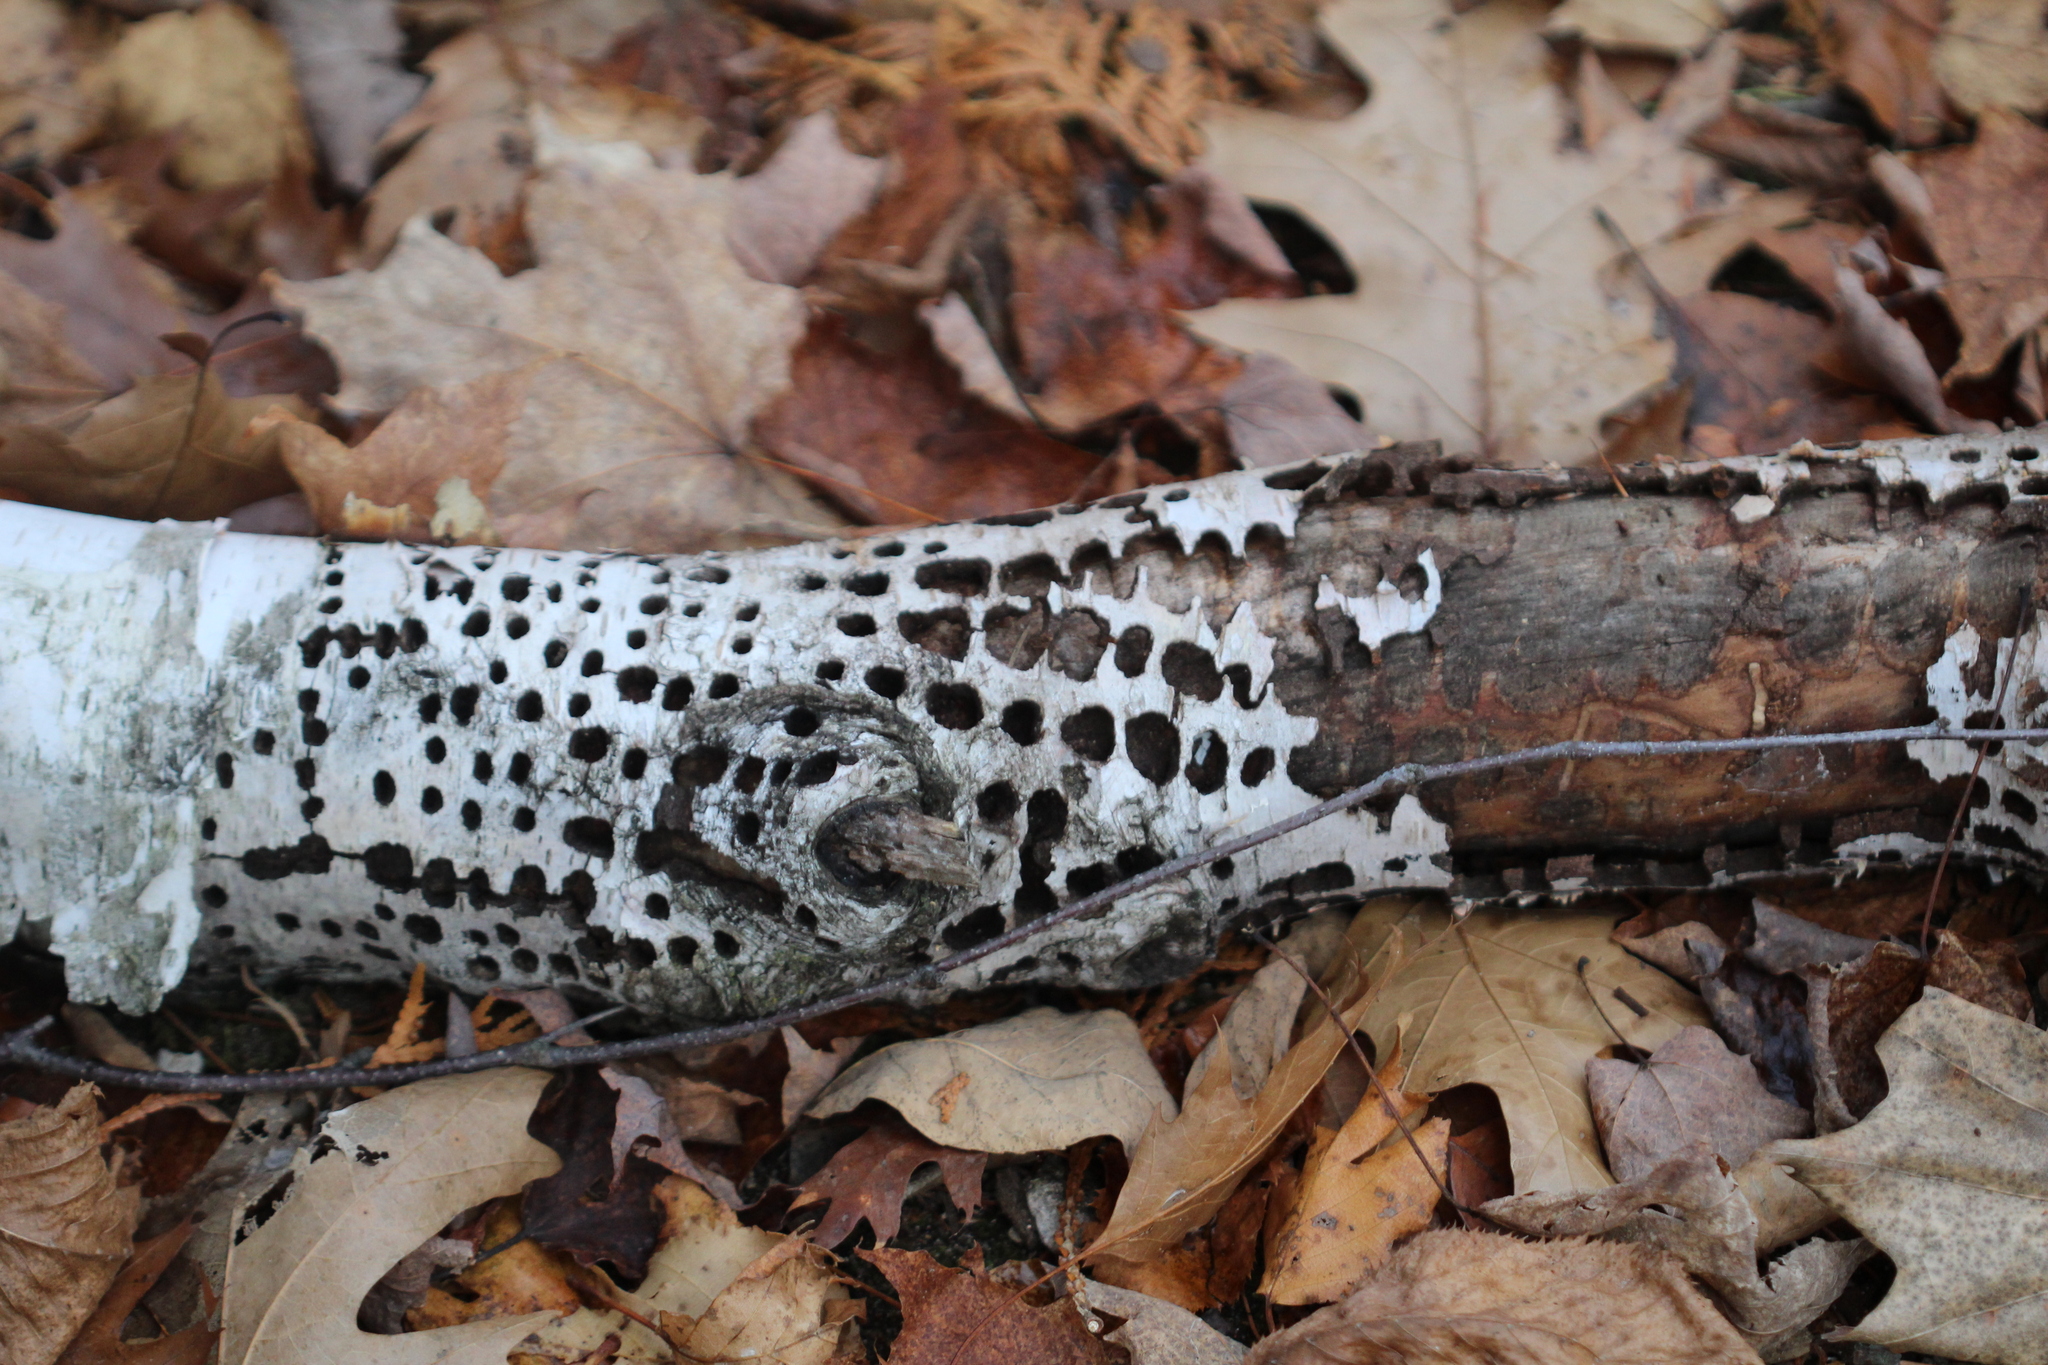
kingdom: Animalia
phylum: Chordata
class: Aves
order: Piciformes
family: Picidae
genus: Sphyrapicus
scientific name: Sphyrapicus varius
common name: Yellow-bellied sapsucker
